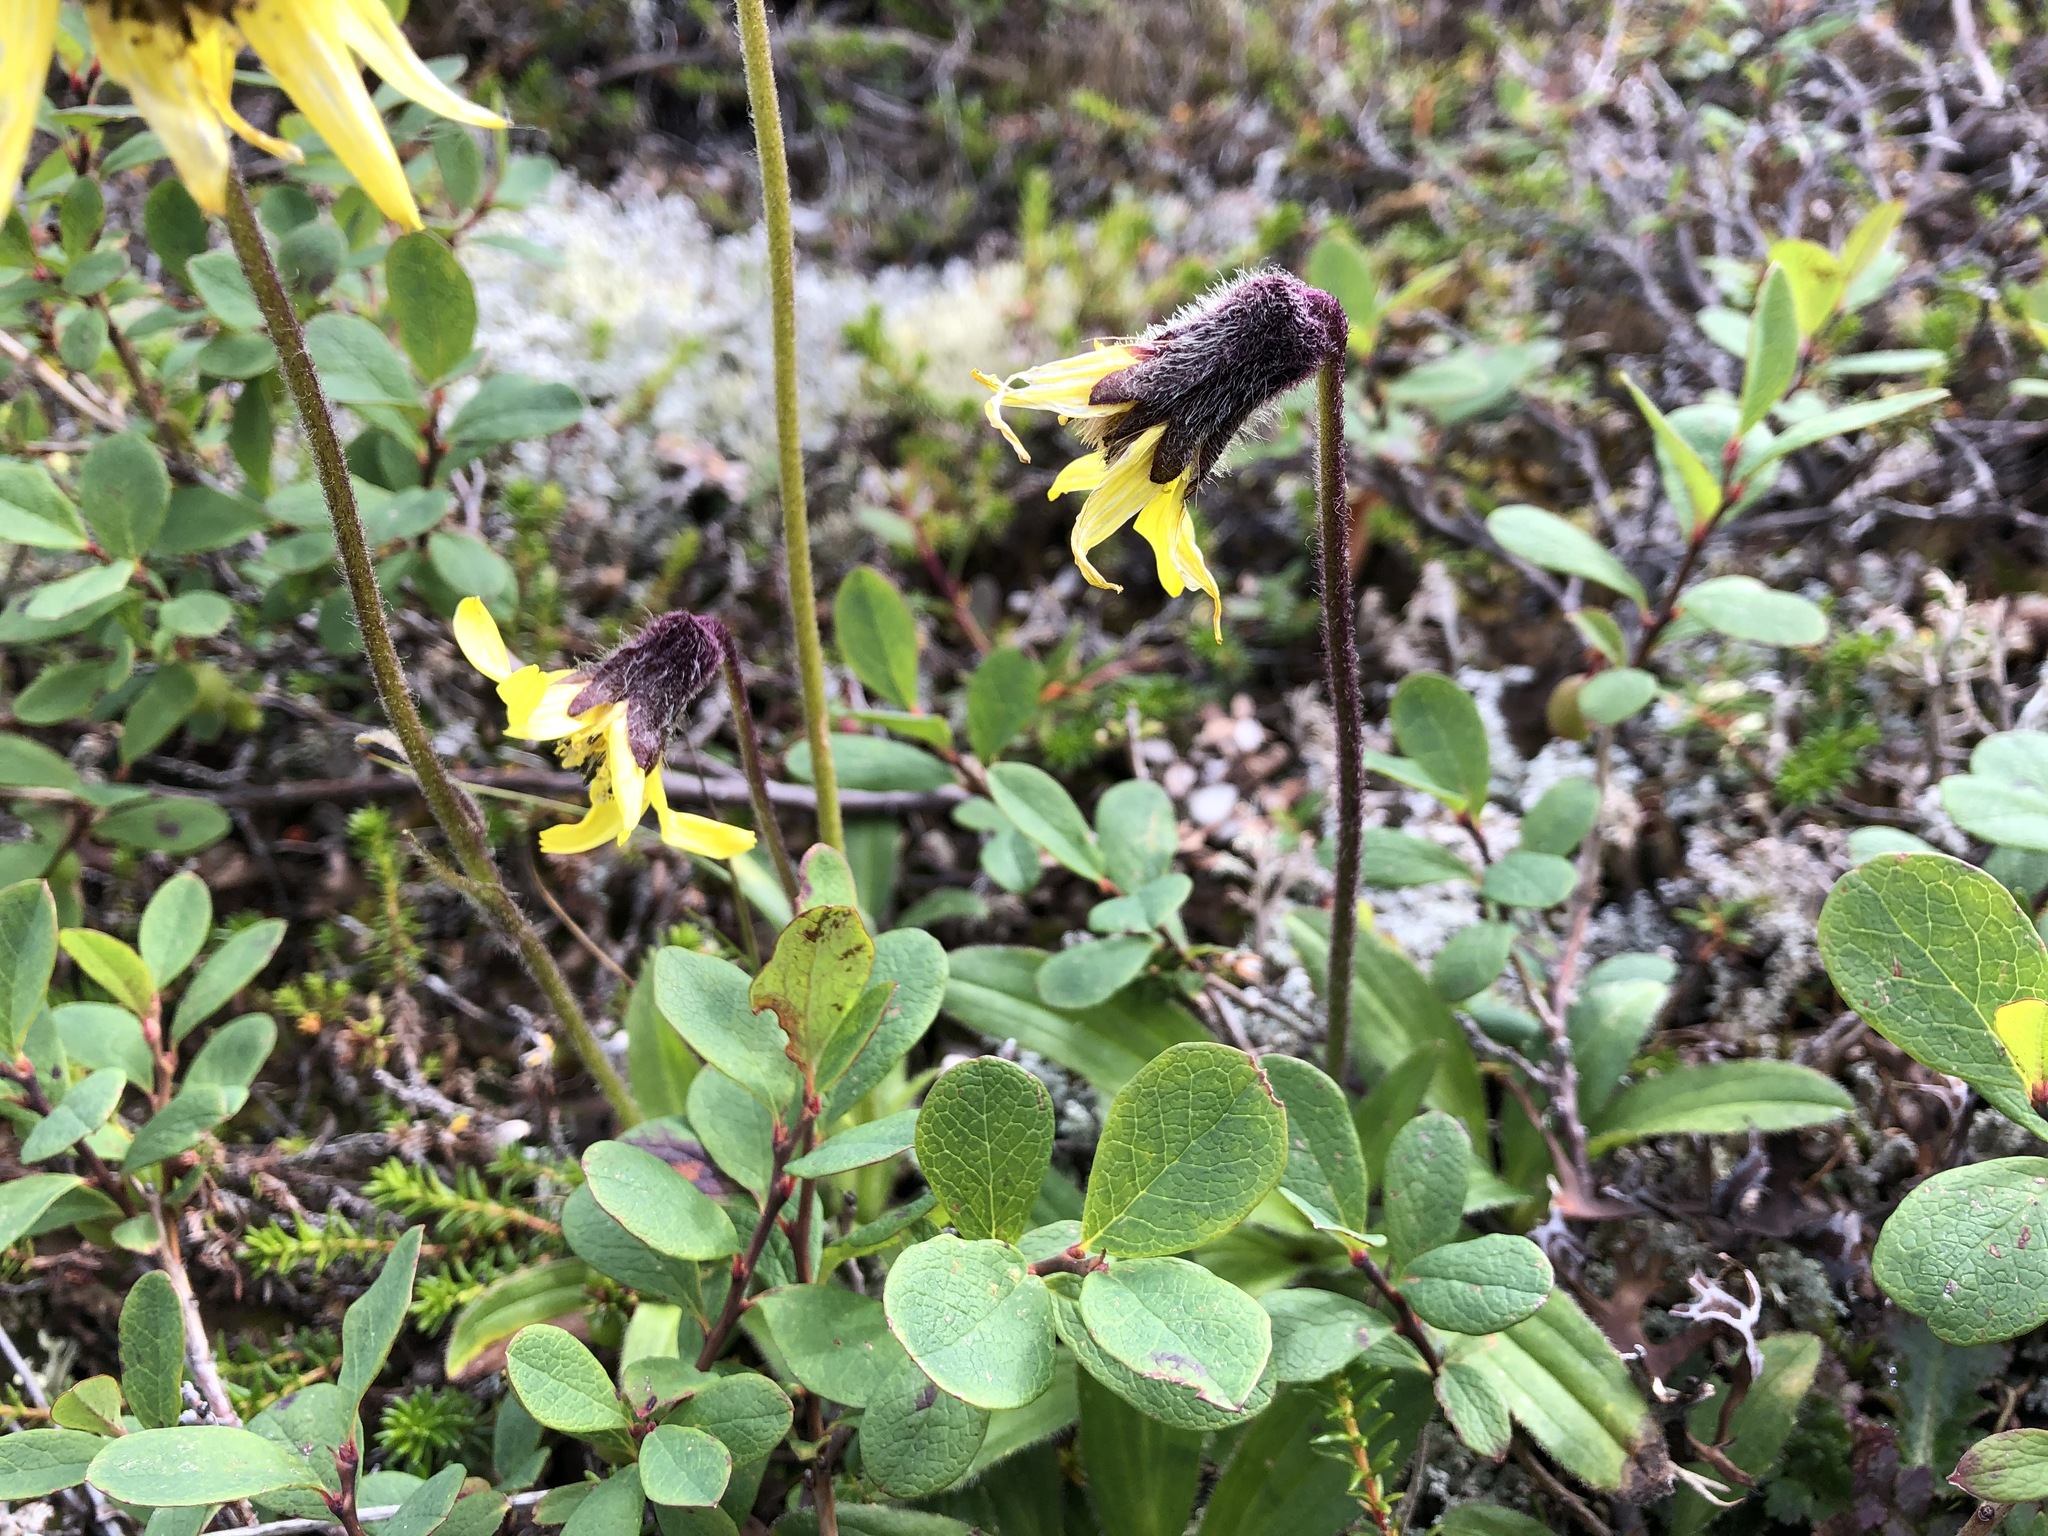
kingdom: Plantae
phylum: Tracheophyta
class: Magnoliopsida
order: Asterales
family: Asteraceae
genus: Arnica
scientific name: Arnica lessingii
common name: Nodding arnica
